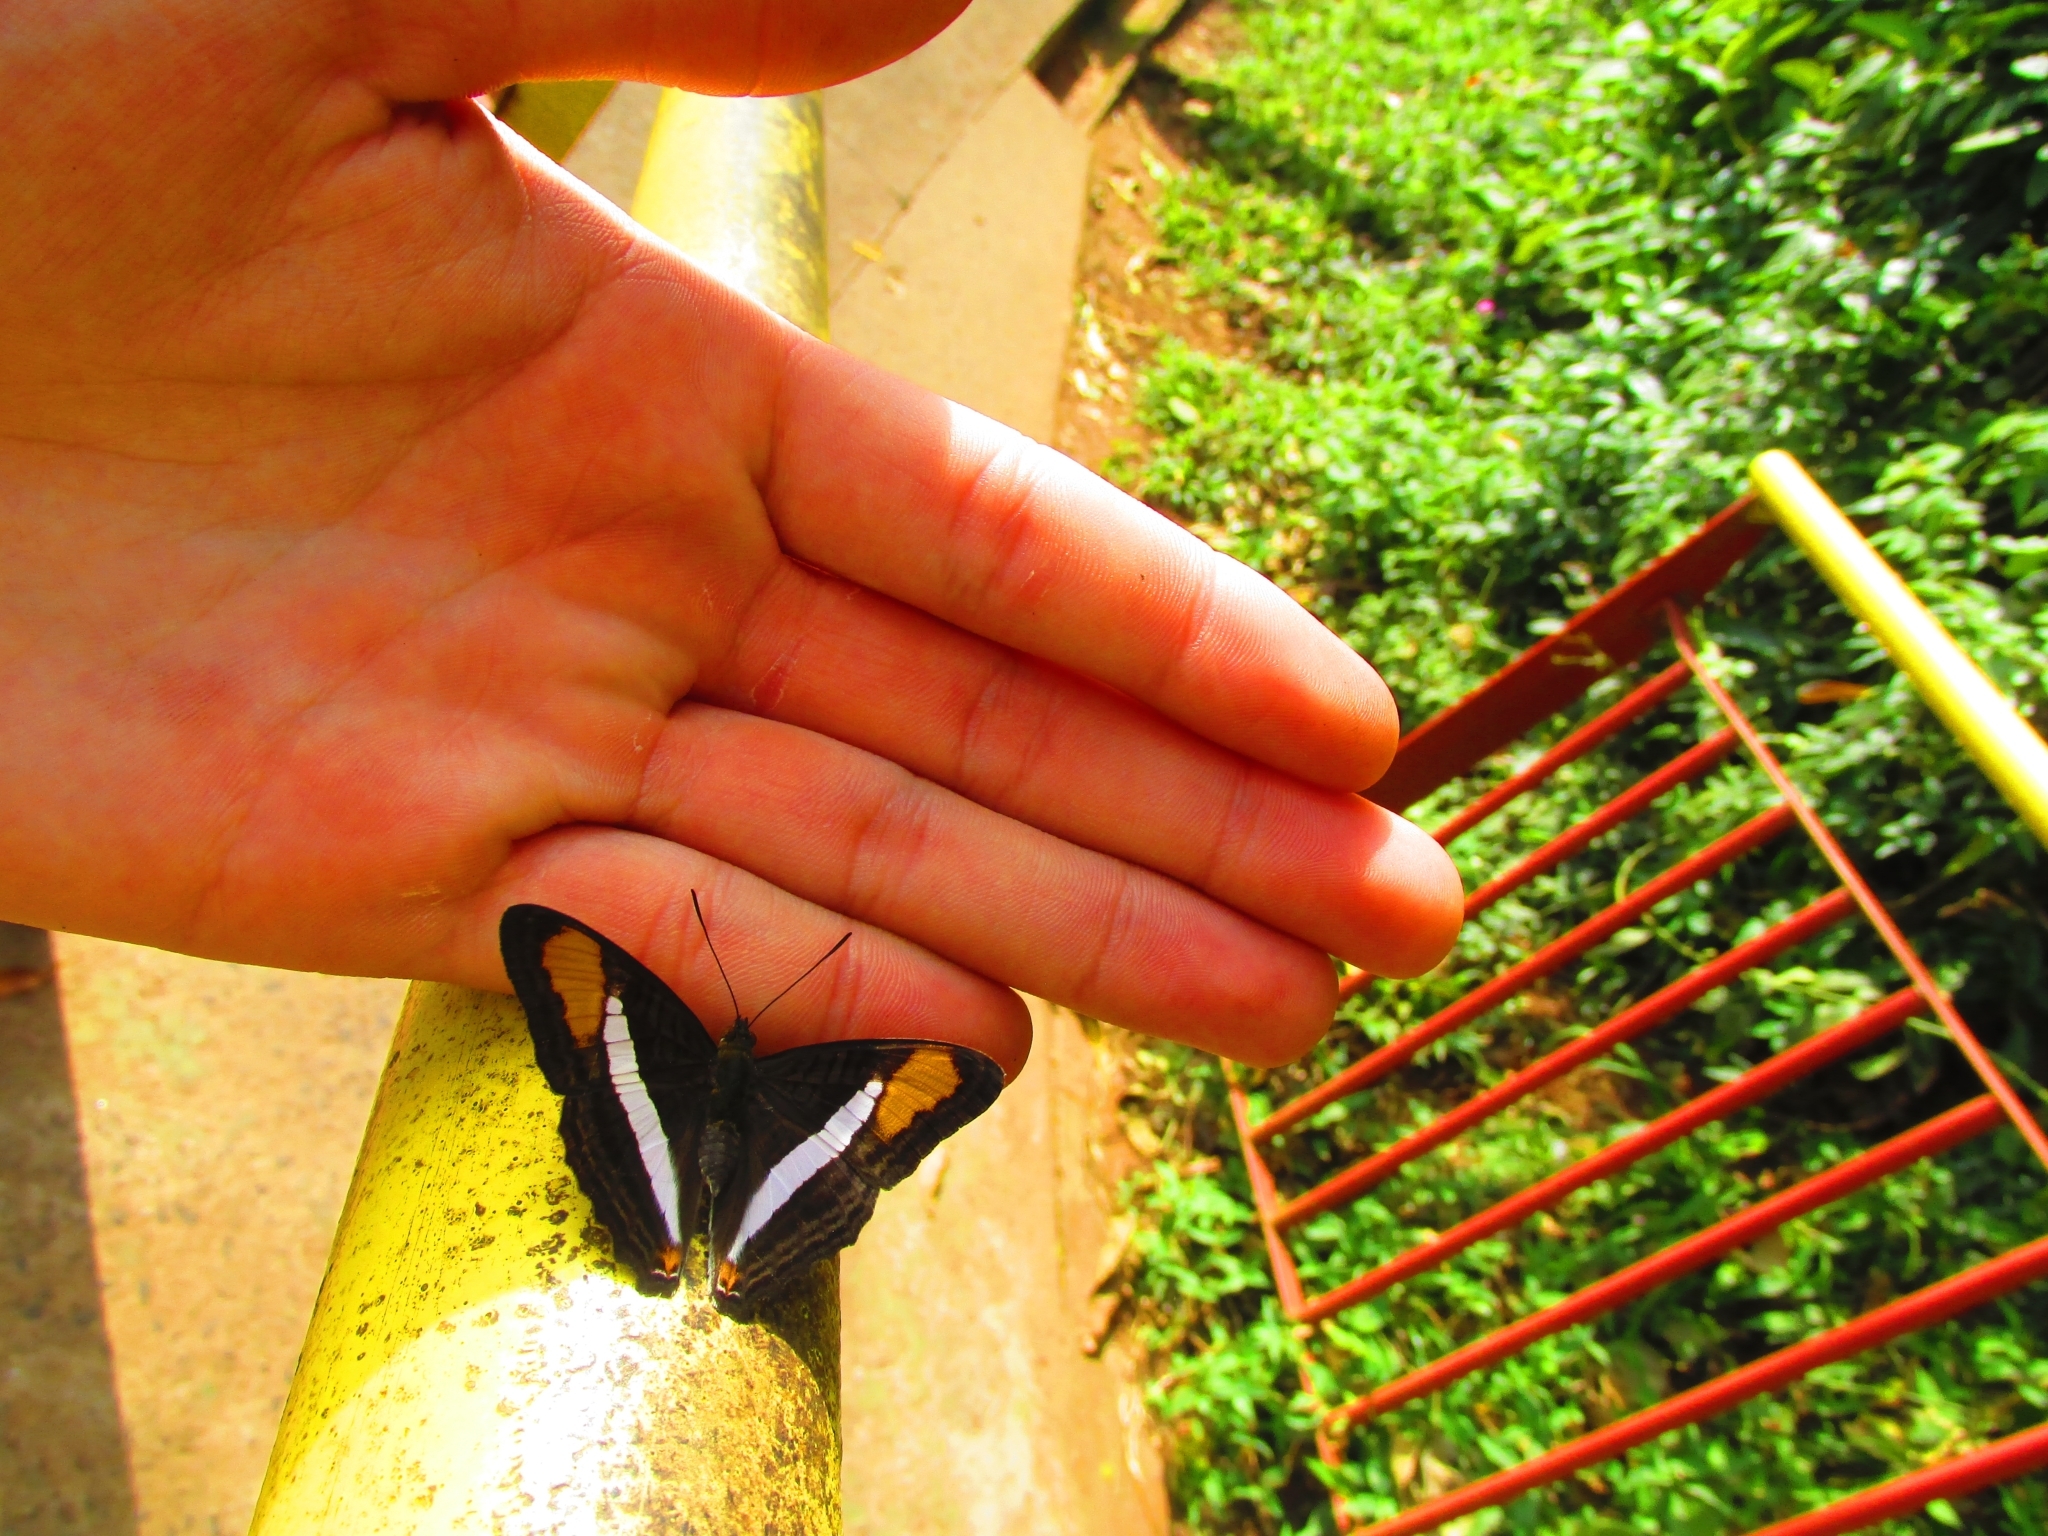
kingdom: Animalia
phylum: Arthropoda
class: Insecta
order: Lepidoptera
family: Nymphalidae
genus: Limenitis
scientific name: Limenitis calliphane
